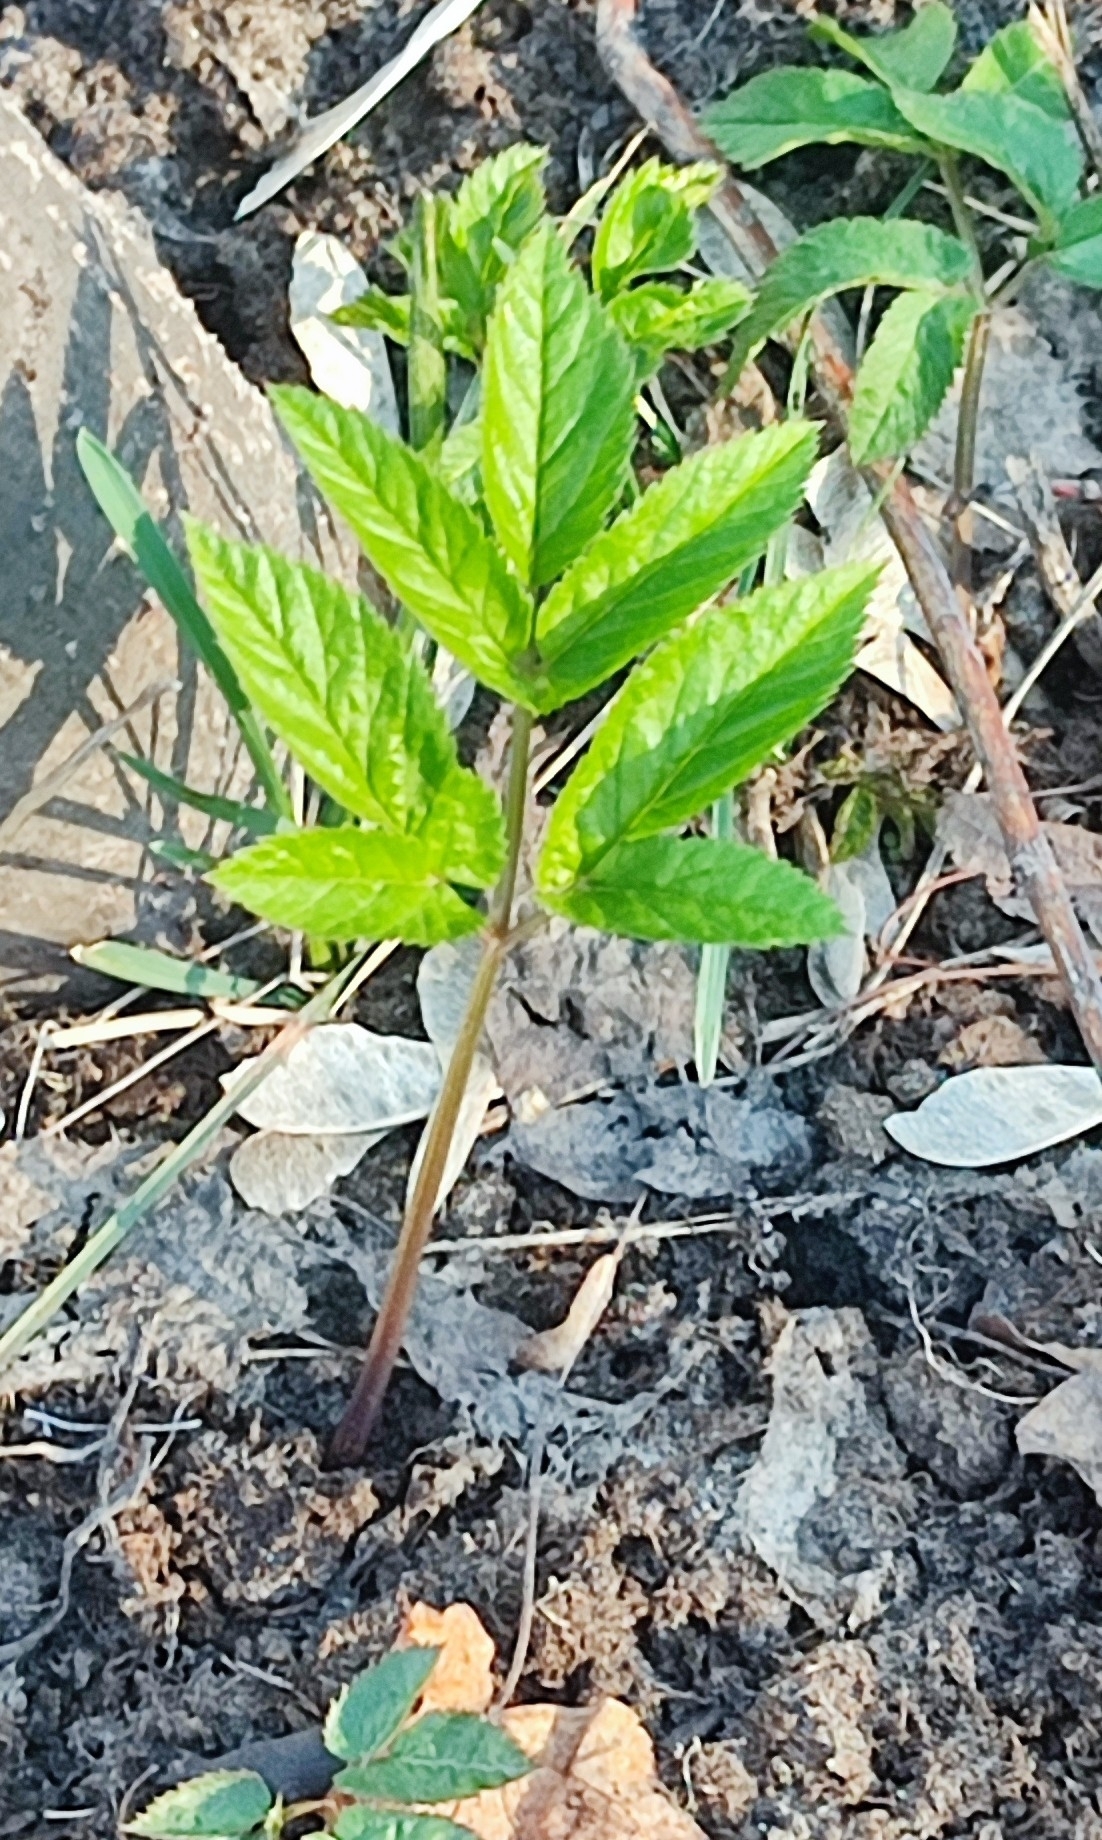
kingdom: Plantae
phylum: Tracheophyta
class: Magnoliopsida
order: Apiales
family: Apiaceae
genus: Aegopodium
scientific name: Aegopodium podagraria
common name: Ground-elder
